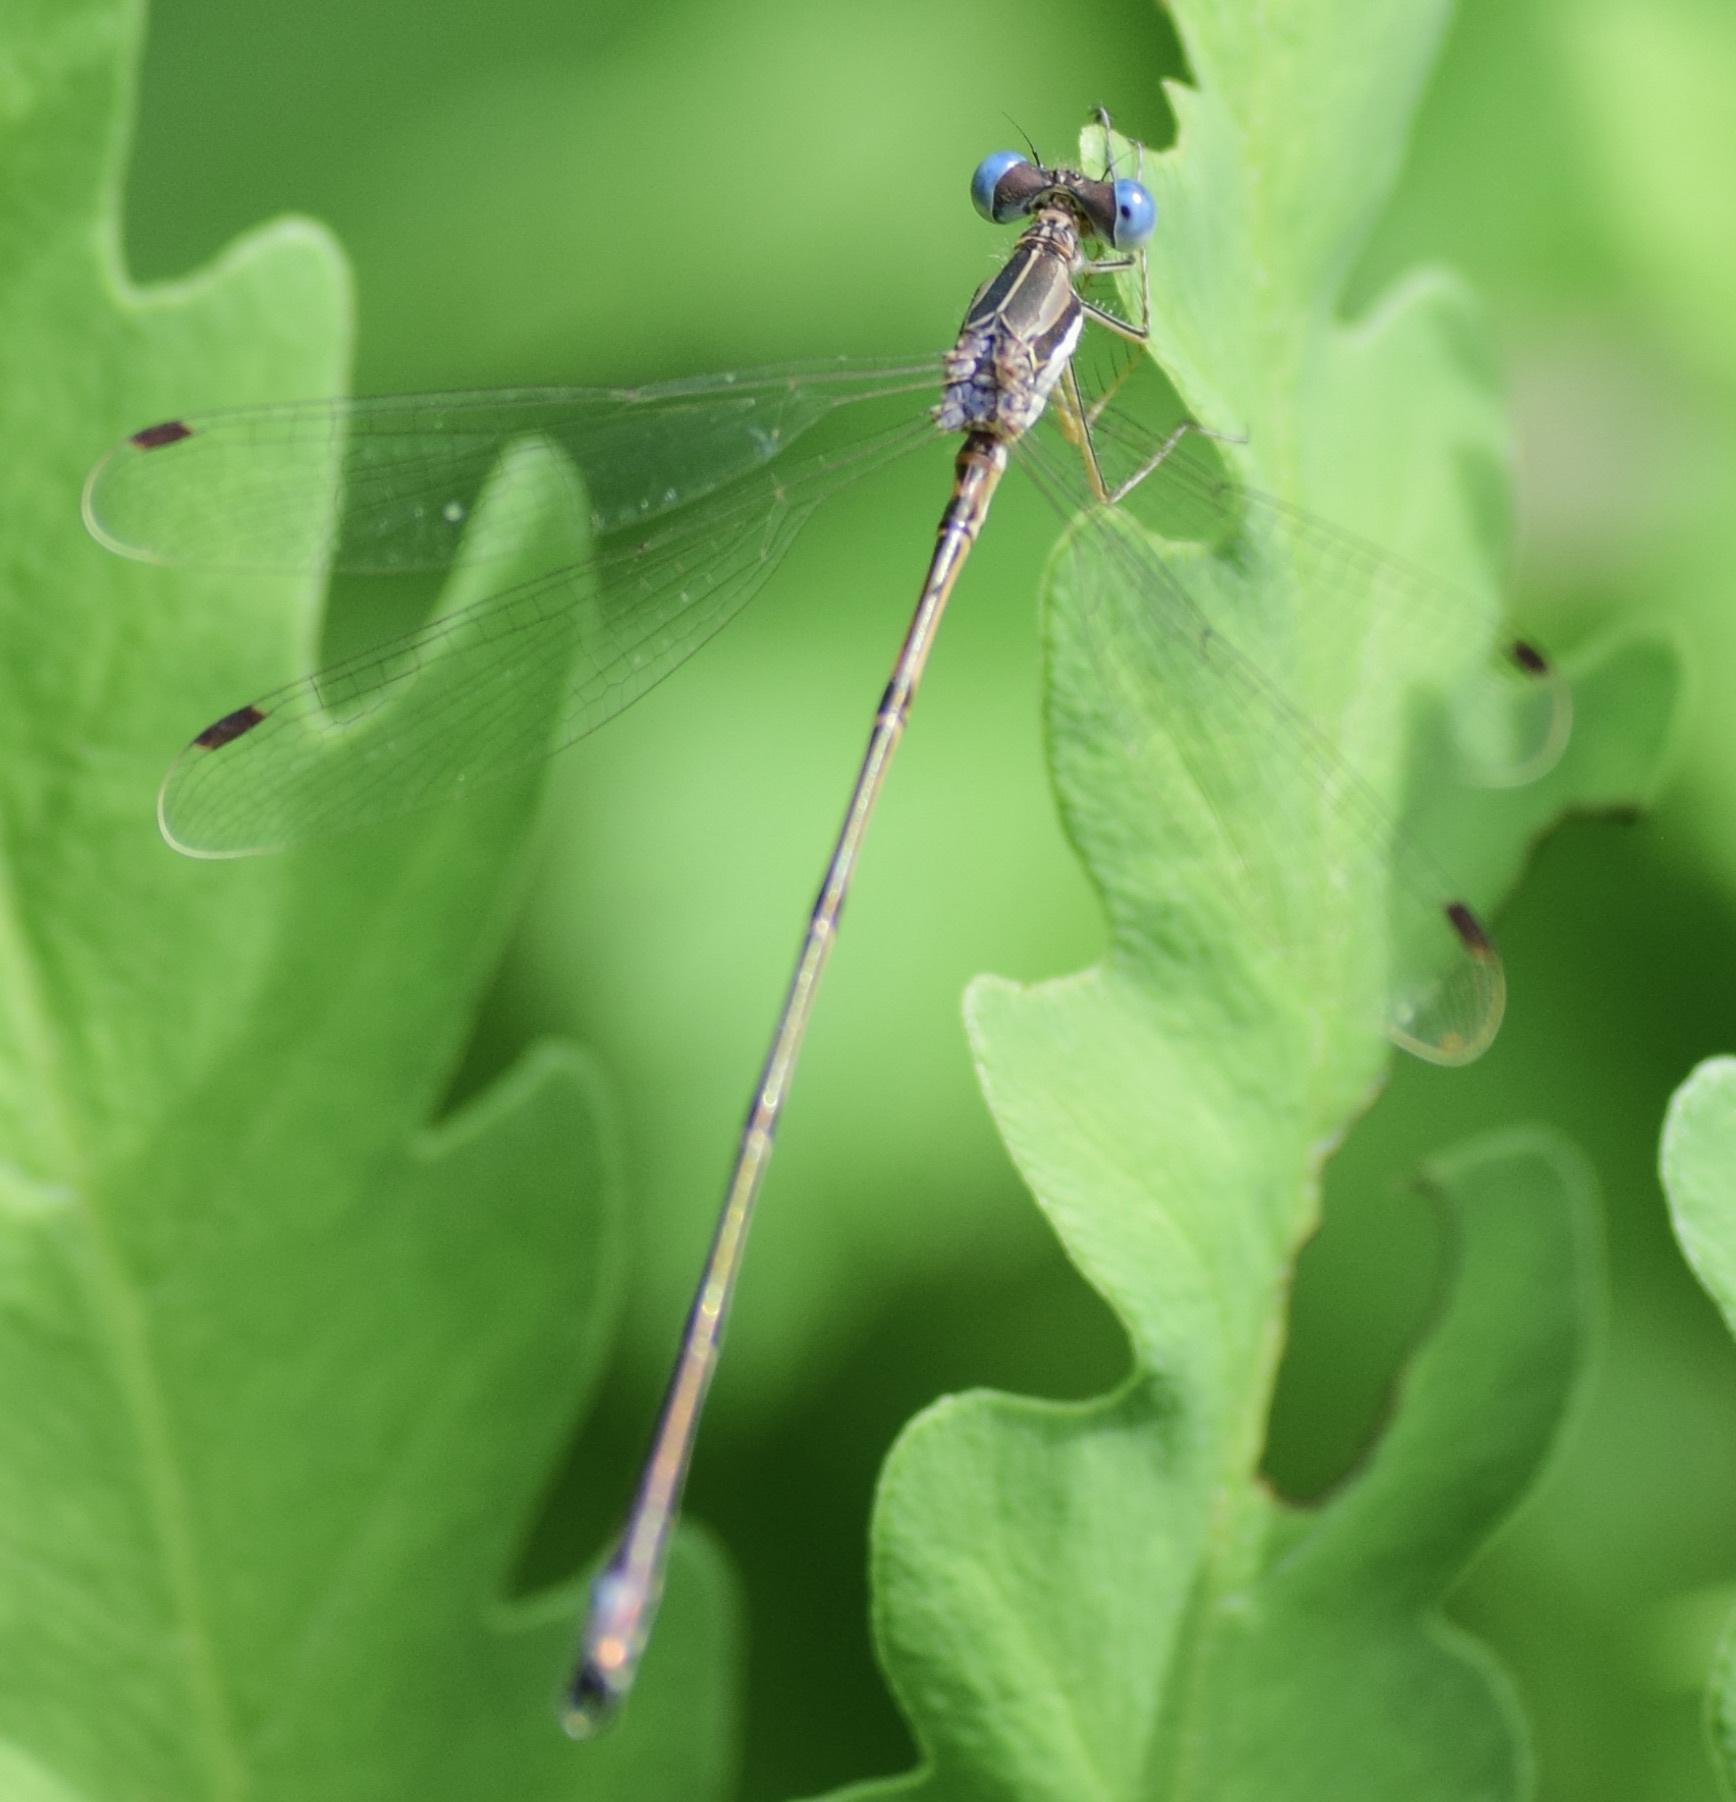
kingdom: Animalia
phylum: Arthropoda
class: Insecta
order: Odonata
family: Lestidae
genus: Lestes
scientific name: Lestes rectangularis
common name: Slender spreadwing
